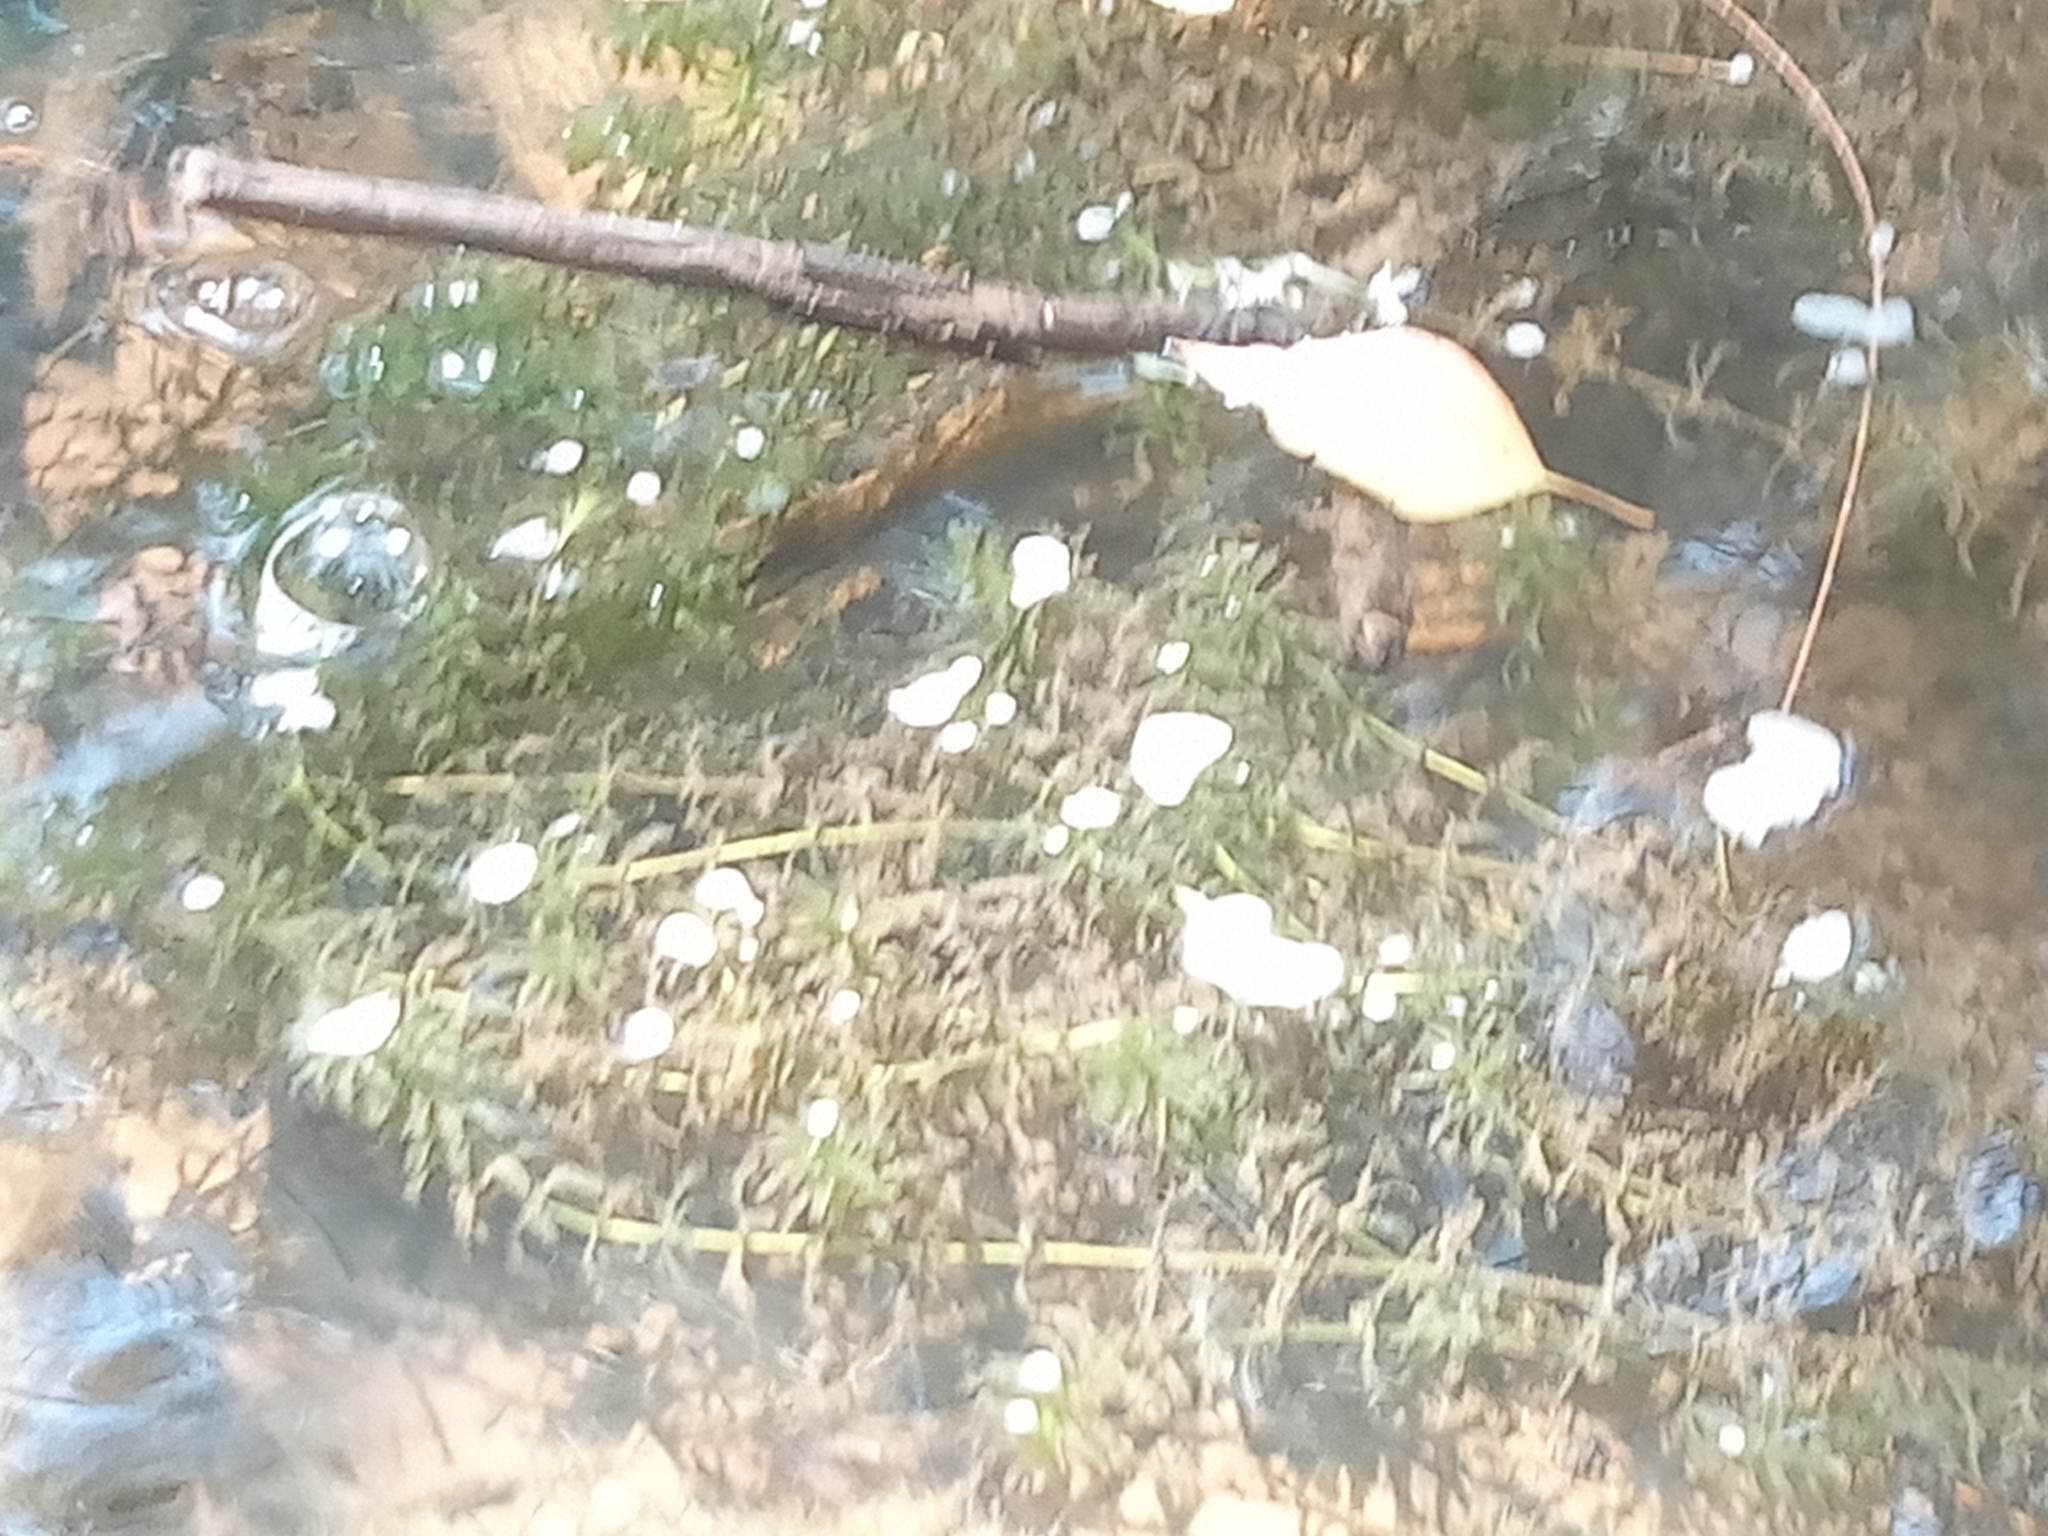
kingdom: Plantae
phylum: Tracheophyta
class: Liliopsida
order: Alismatales
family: Hydrocharitaceae
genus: Elodea
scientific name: Elodea canadensis
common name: Canadian waterweed
